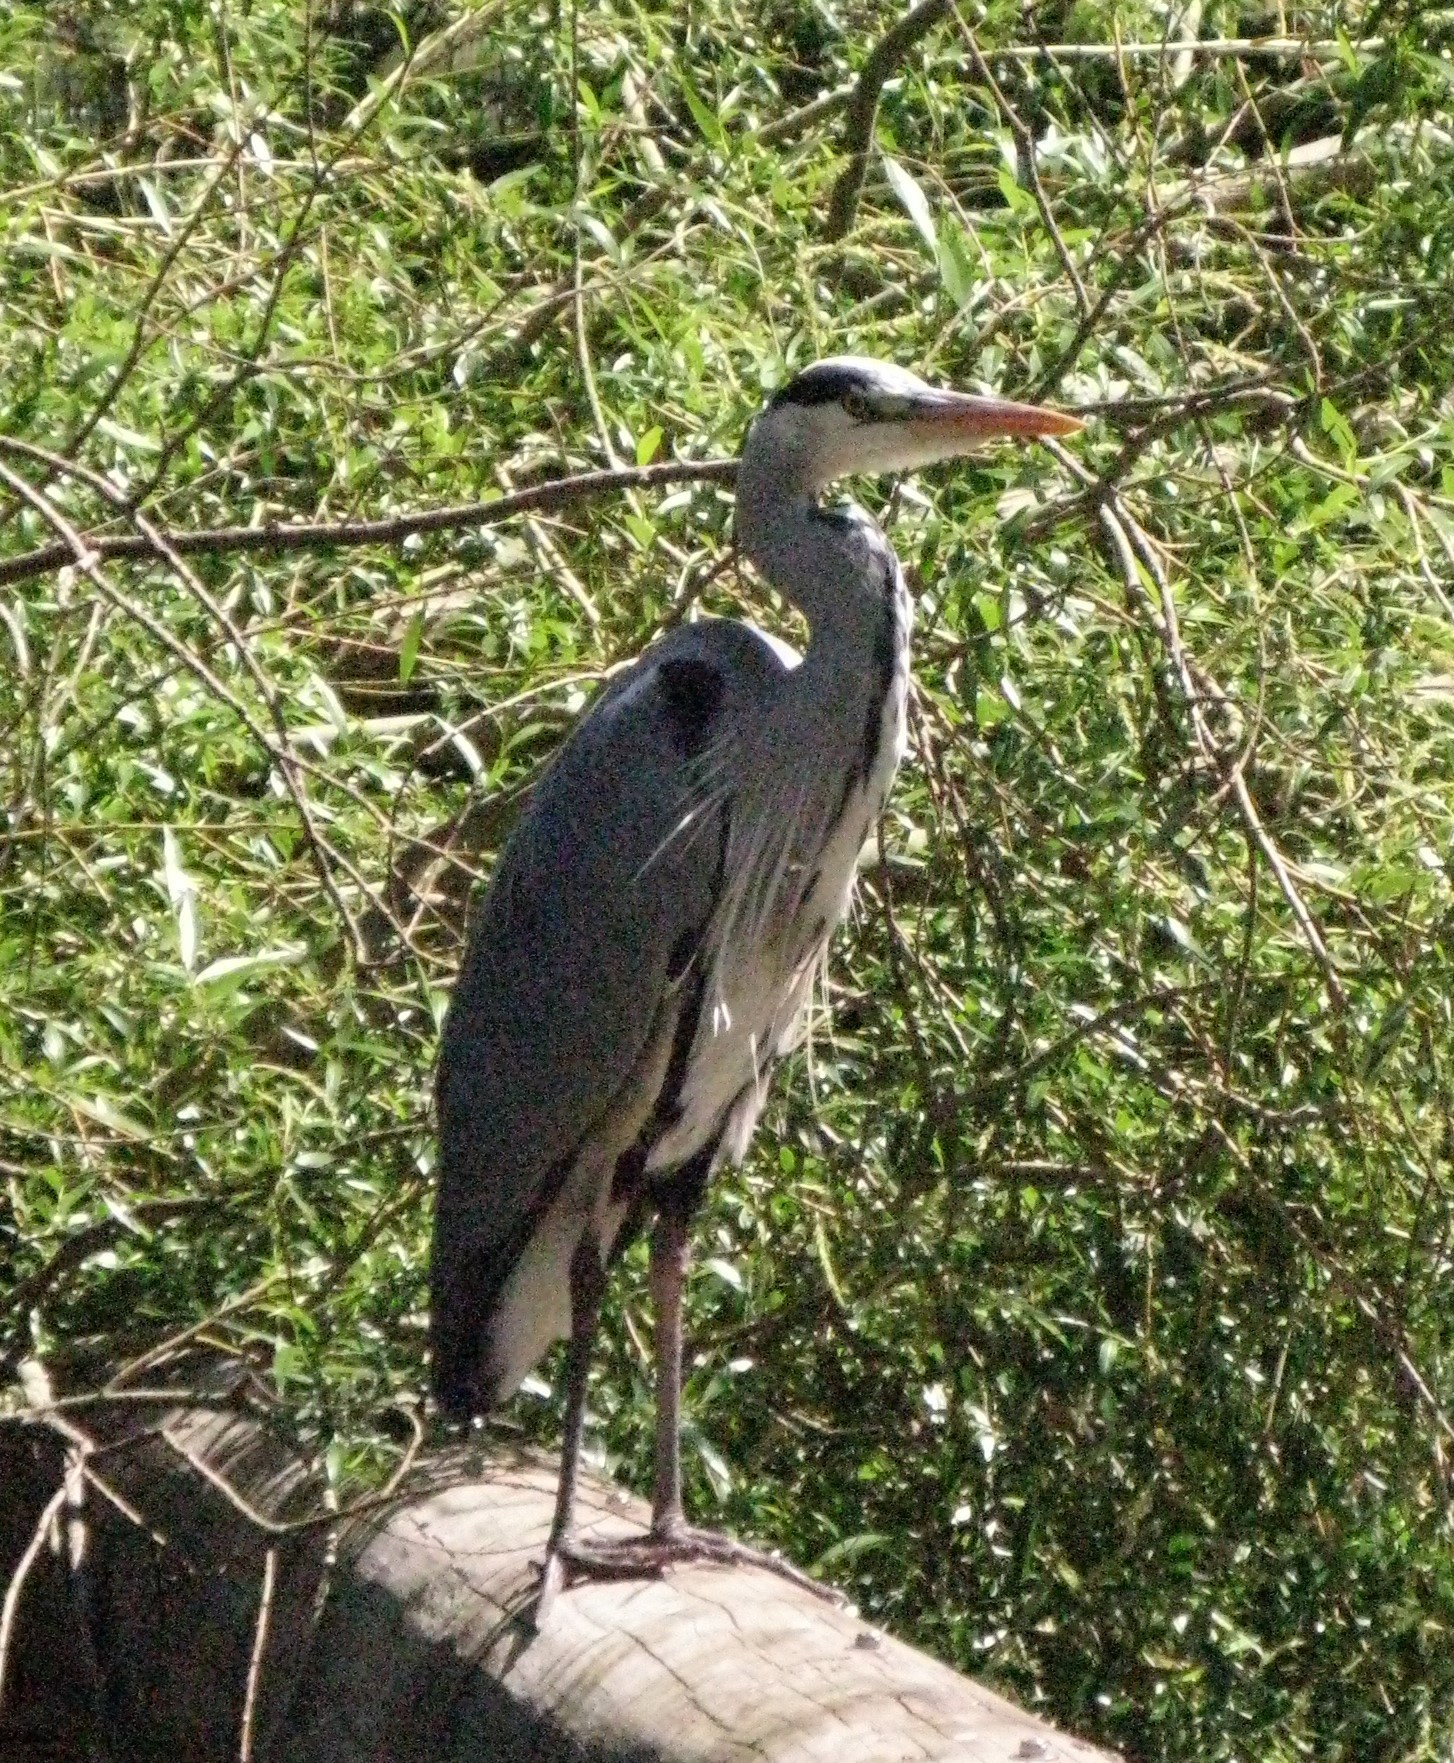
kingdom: Animalia
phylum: Chordata
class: Aves
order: Pelecaniformes
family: Ardeidae
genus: Ardea
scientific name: Ardea cinerea
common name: Grey heron
